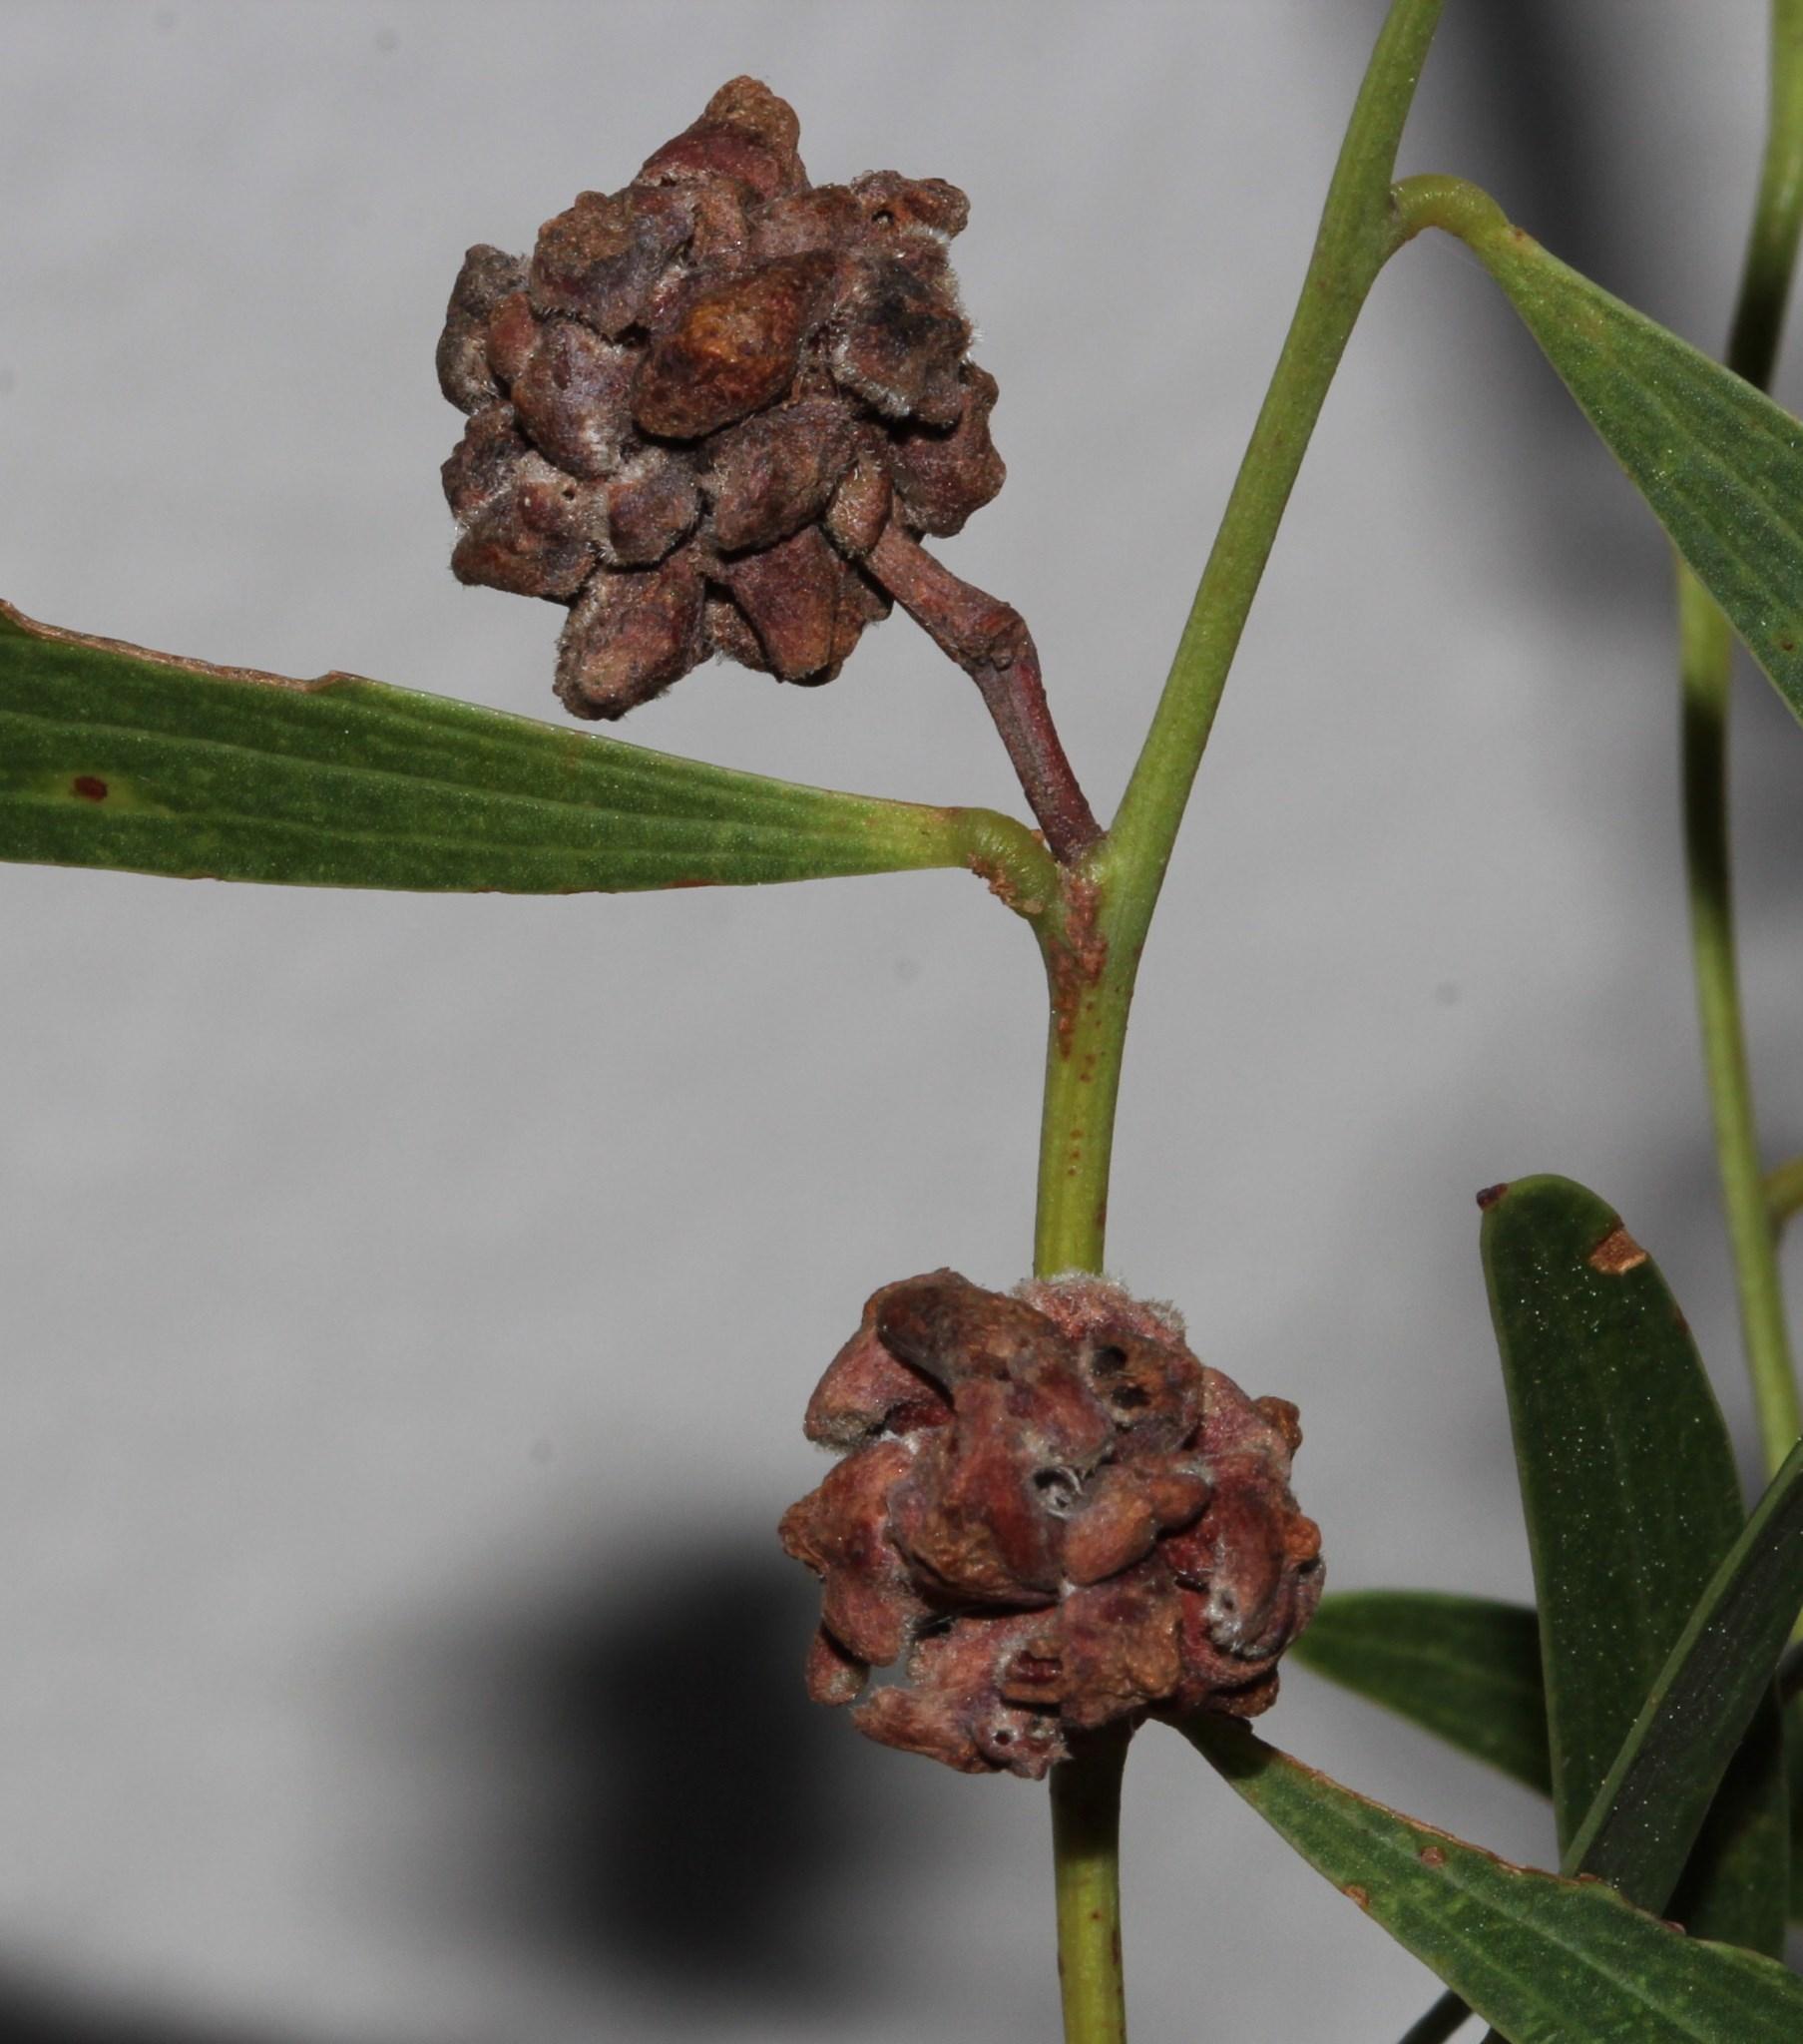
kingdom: Animalia
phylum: Arthropoda
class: Insecta
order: Diptera
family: Cecidomyiidae
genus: Dasineura
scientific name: Dasineura dielsi
